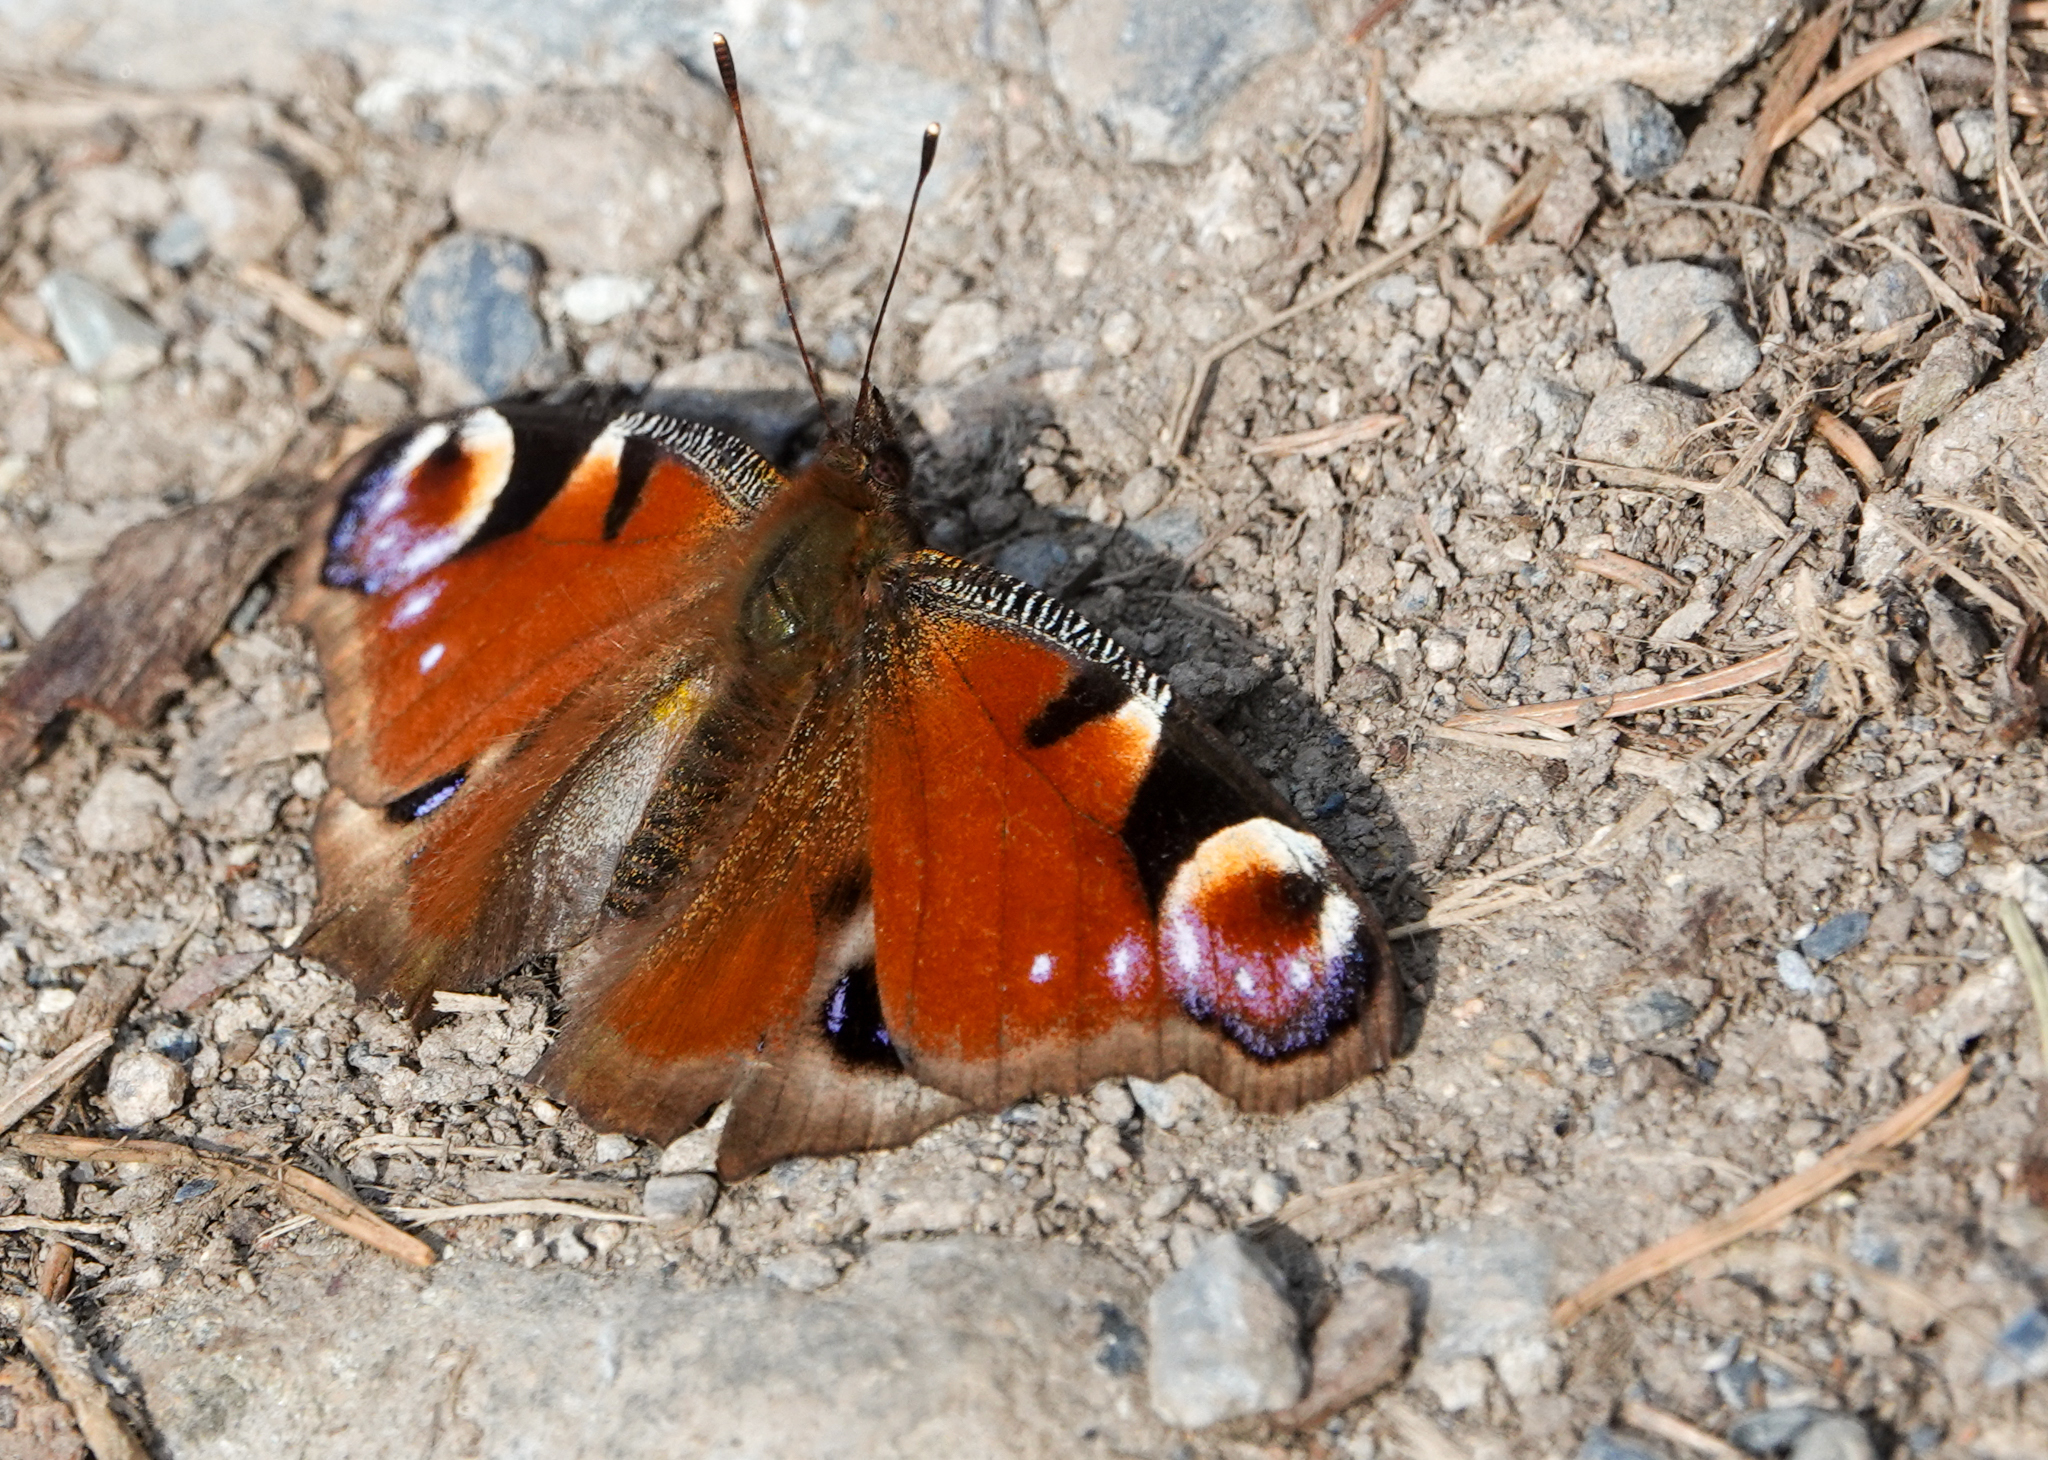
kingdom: Animalia
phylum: Arthropoda
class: Insecta
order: Lepidoptera
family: Nymphalidae
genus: Aglais
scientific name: Aglais io
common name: Peacock
